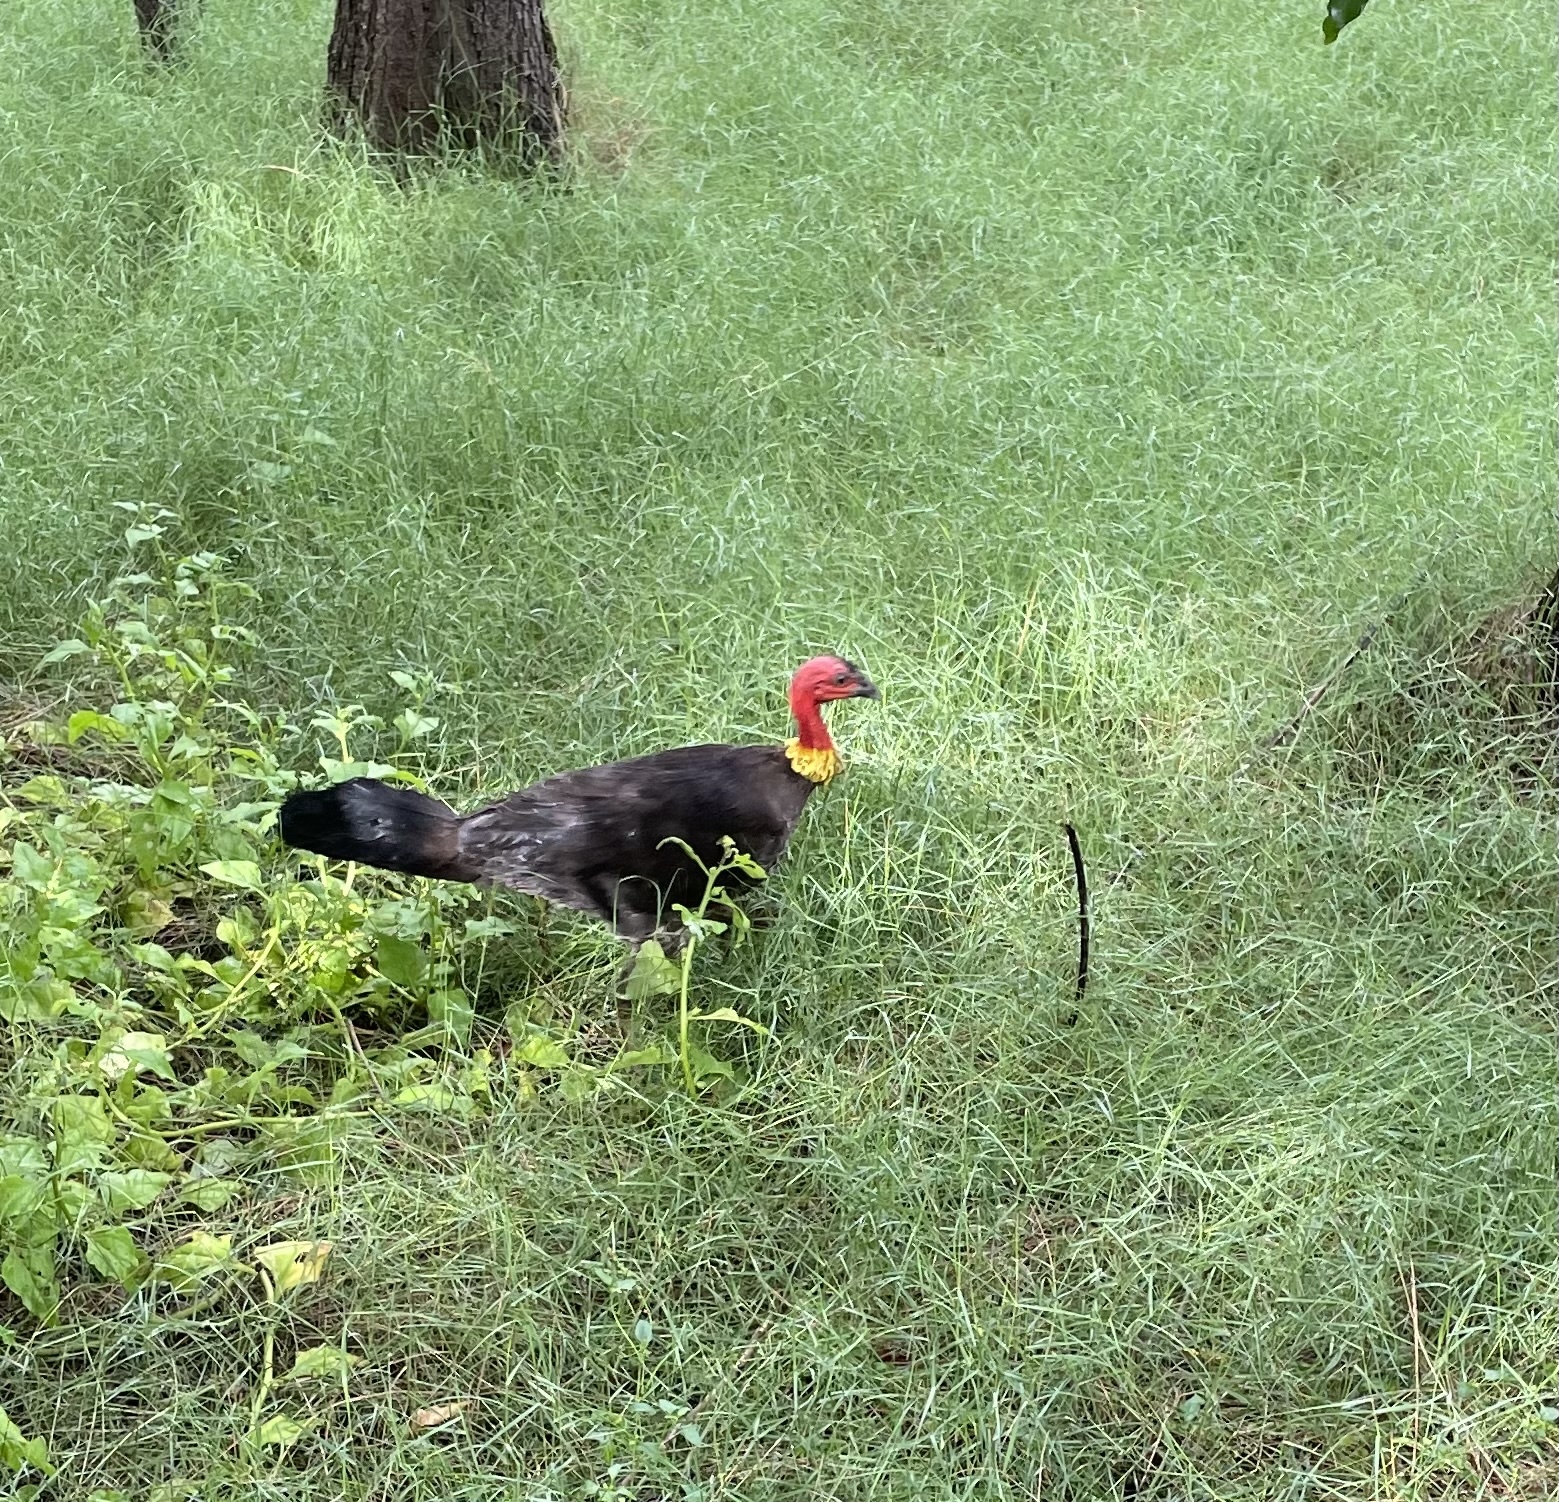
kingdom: Animalia
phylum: Chordata
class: Aves
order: Galliformes
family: Megapodiidae
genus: Alectura
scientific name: Alectura lathami
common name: Australian brushturkey
